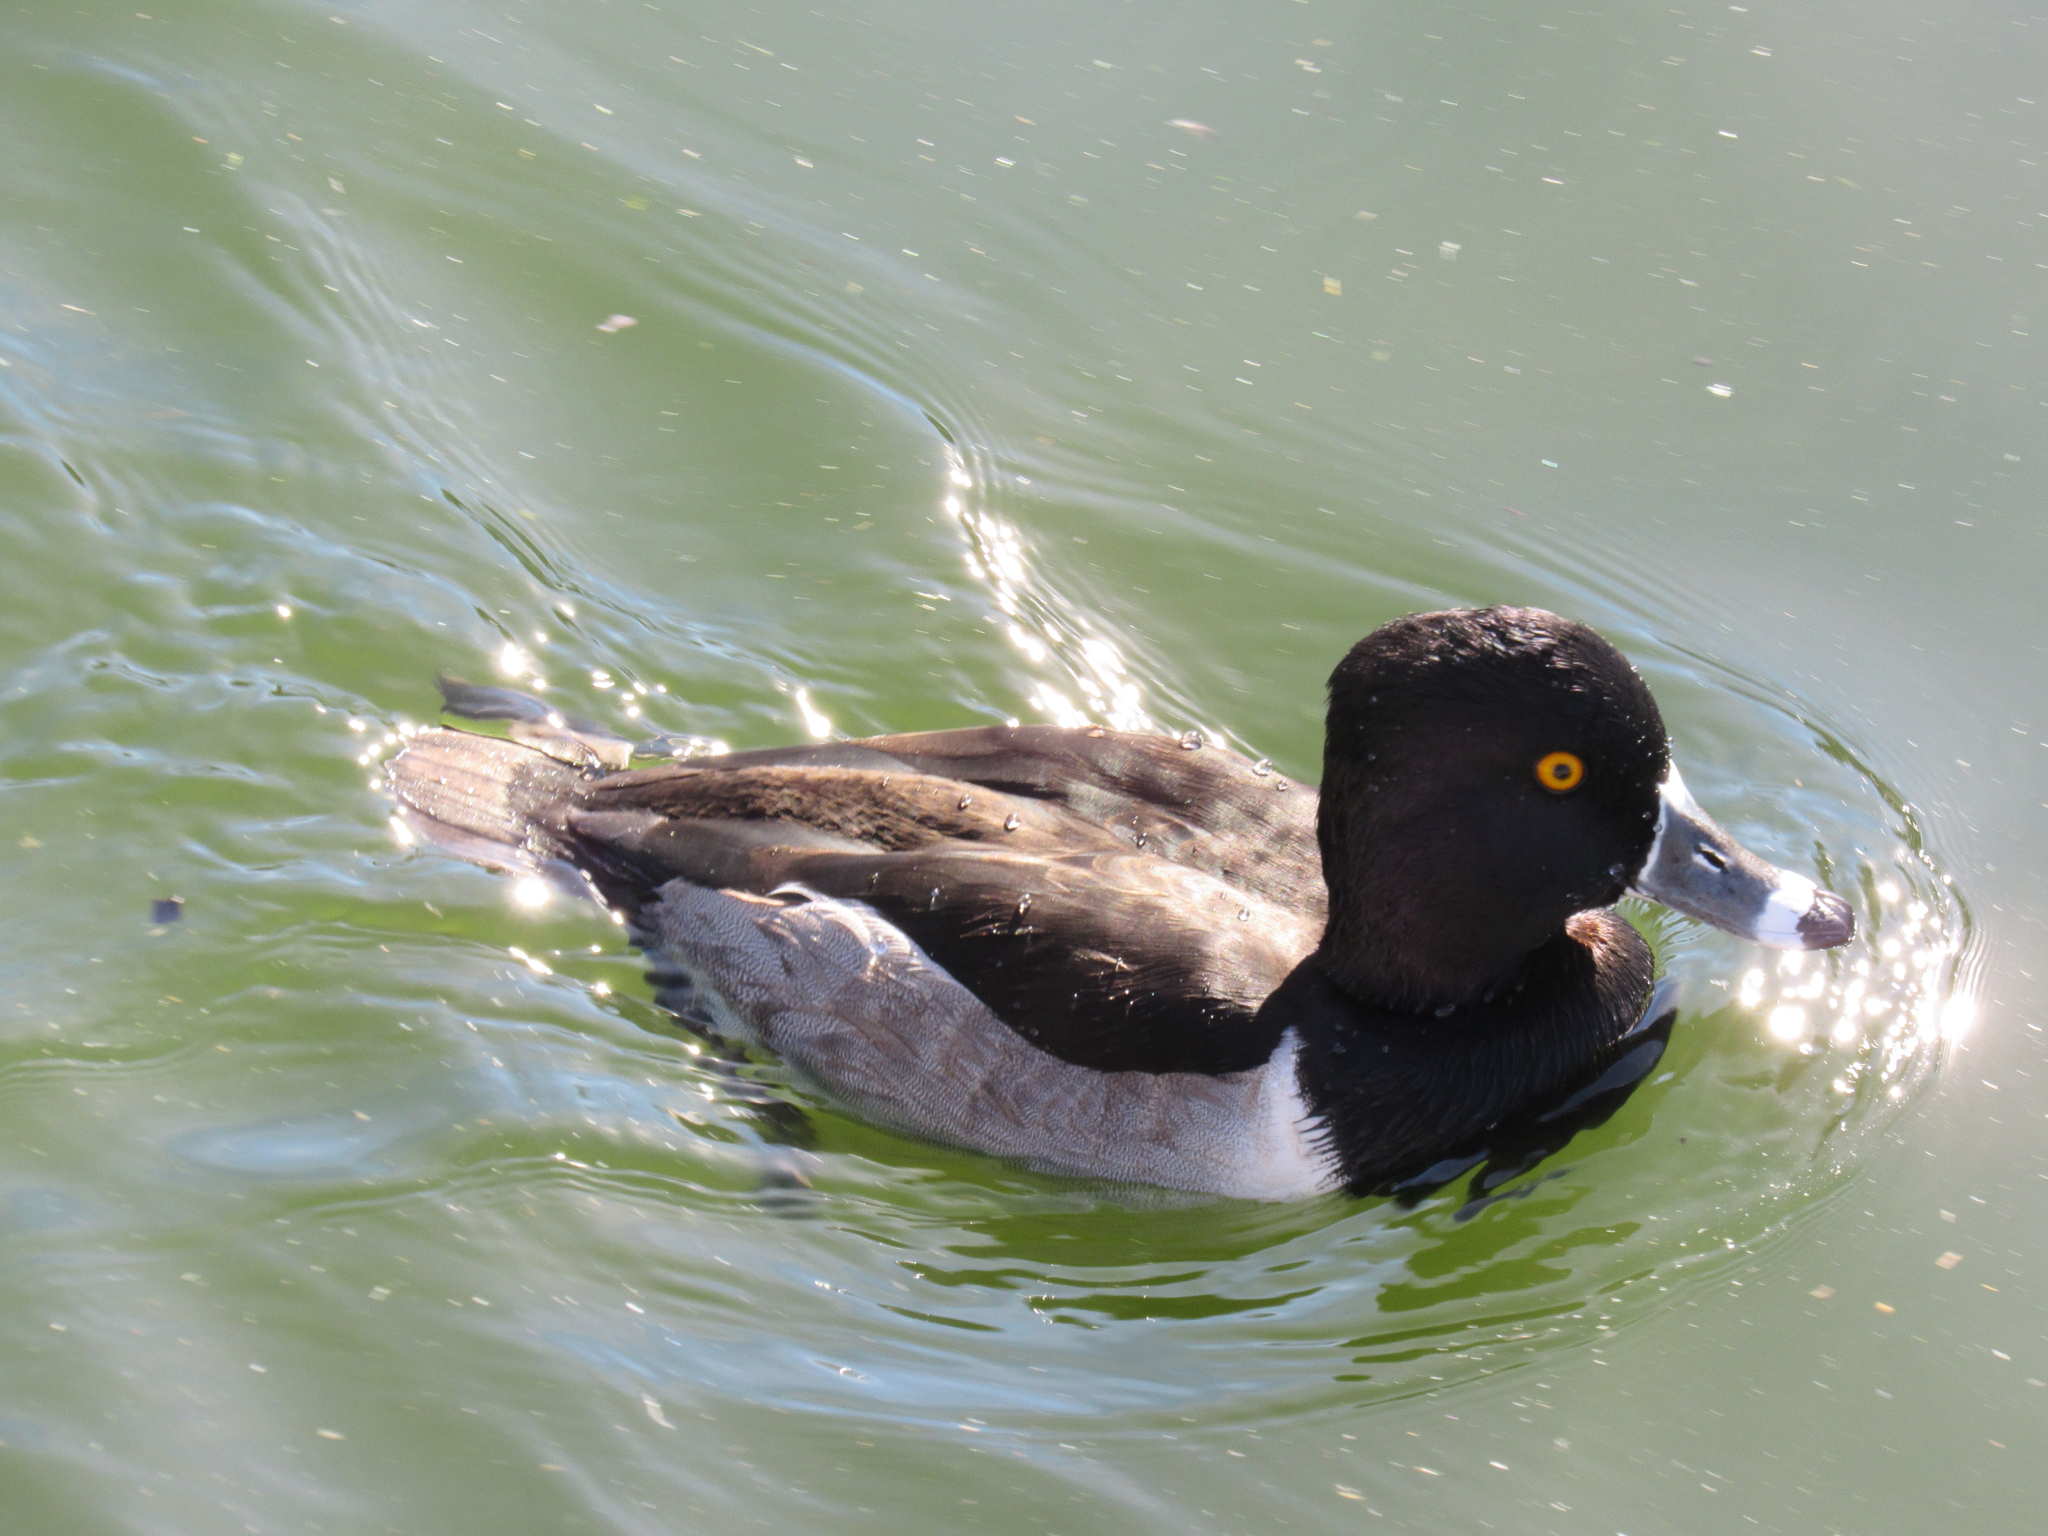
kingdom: Animalia
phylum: Chordata
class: Aves
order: Anseriformes
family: Anatidae
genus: Aythya
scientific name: Aythya collaris
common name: Ring-necked duck
